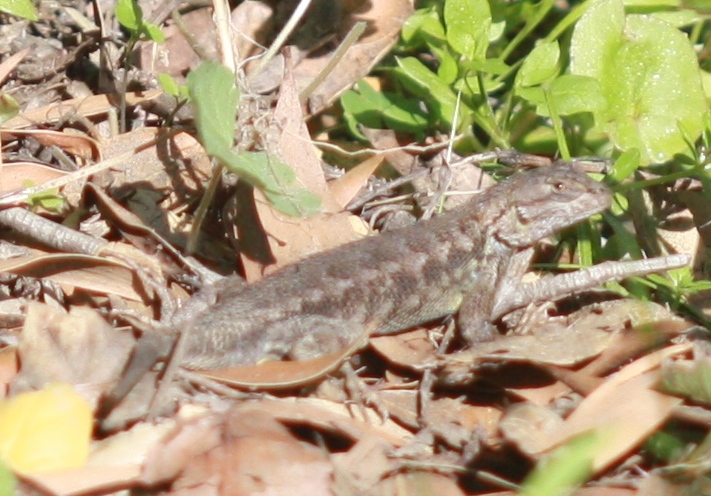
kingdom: Animalia
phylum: Chordata
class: Squamata
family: Phrynosomatidae
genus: Sceloporus
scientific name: Sceloporus occidentalis
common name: Western fence lizard
